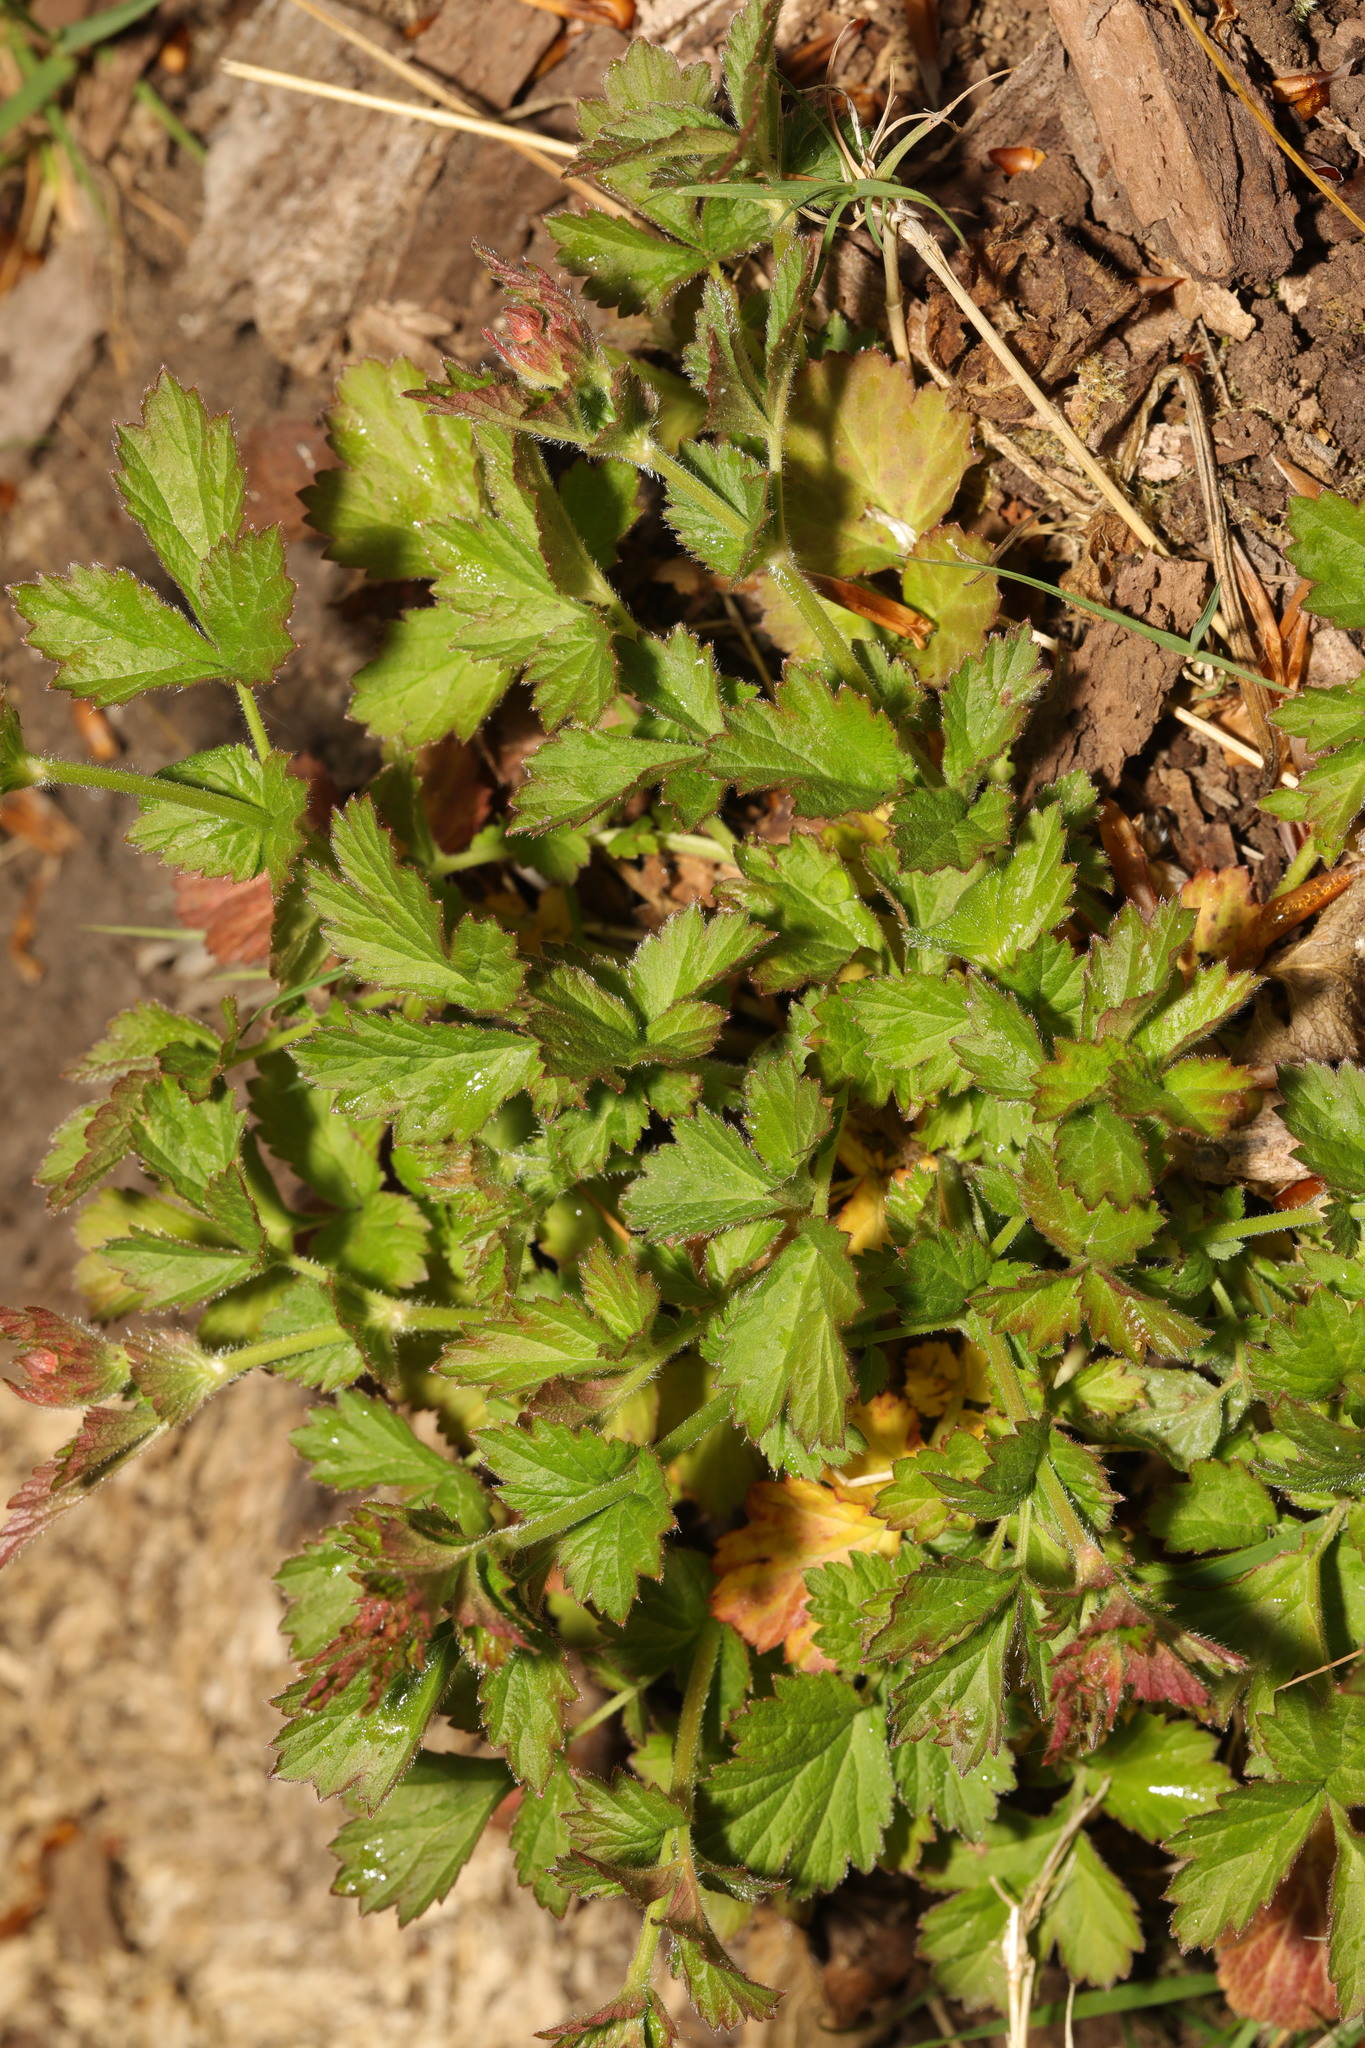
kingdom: Plantae
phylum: Tracheophyta
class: Magnoliopsida
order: Rosales
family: Rosaceae
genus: Geum
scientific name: Geum urbanum
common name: Wood avens
